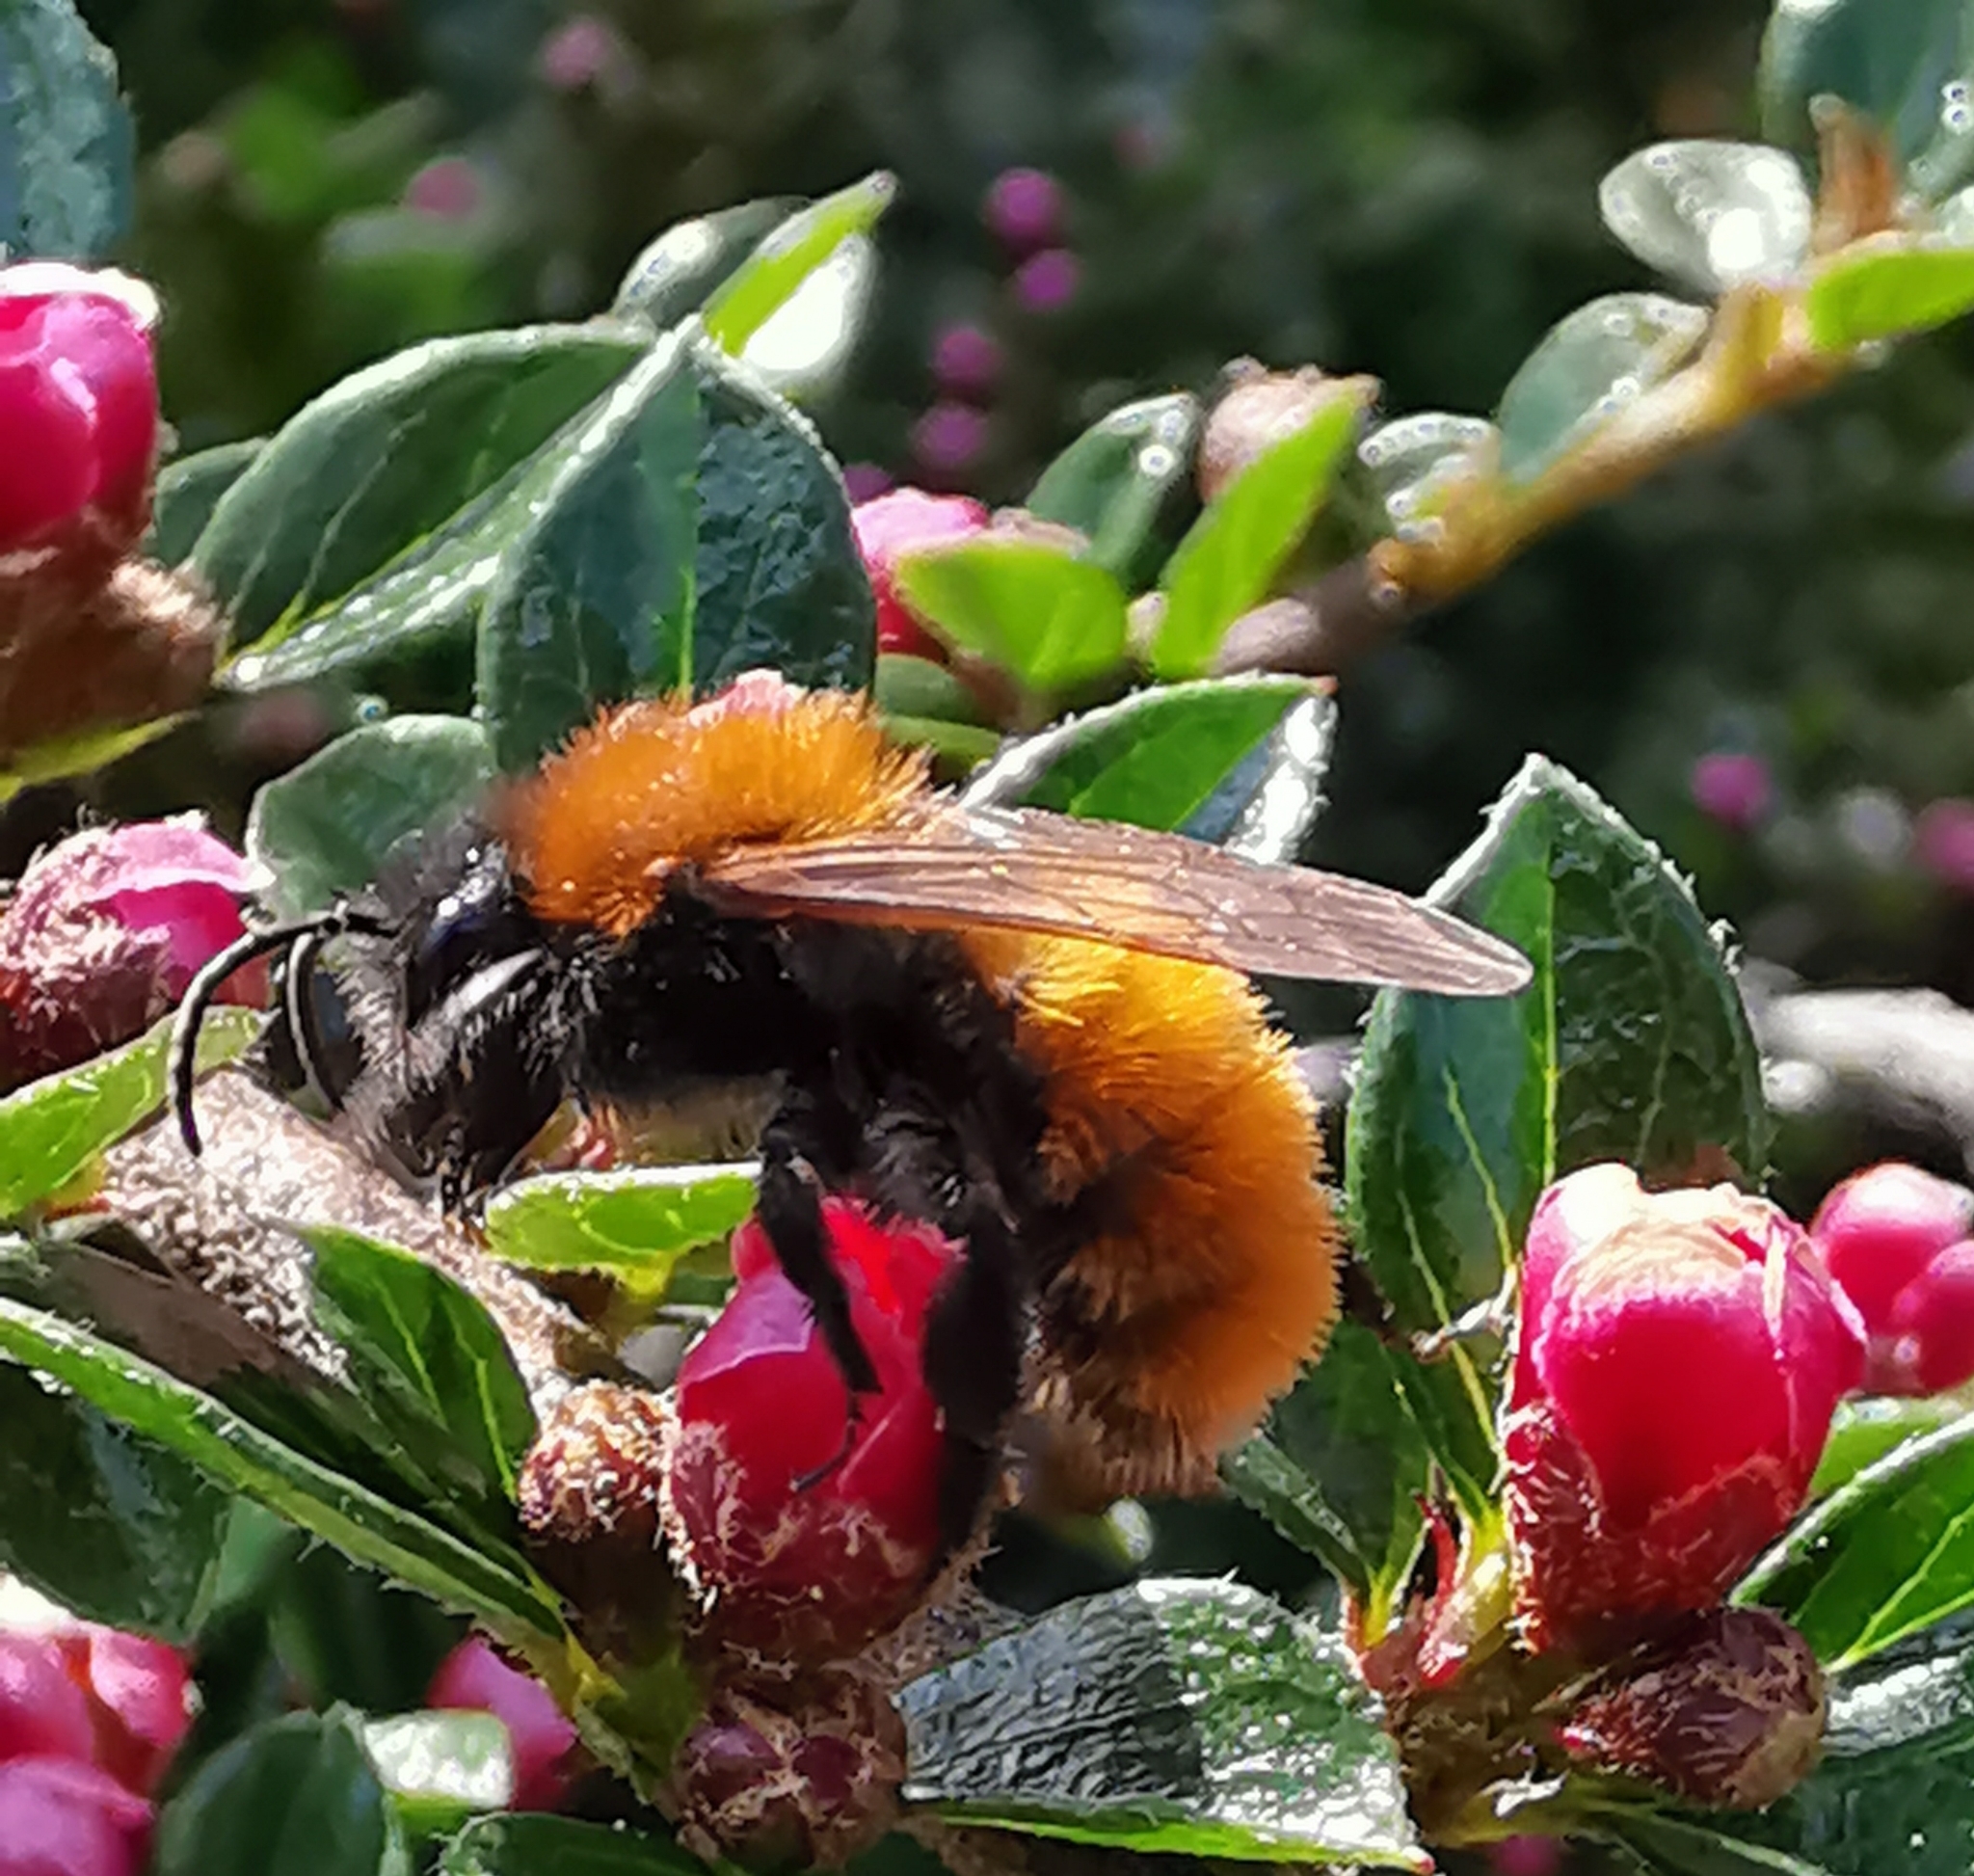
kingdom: Animalia
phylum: Arthropoda
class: Insecta
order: Hymenoptera
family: Andrenidae
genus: Andrena
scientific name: Andrena fulva
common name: Tawny mining bee
